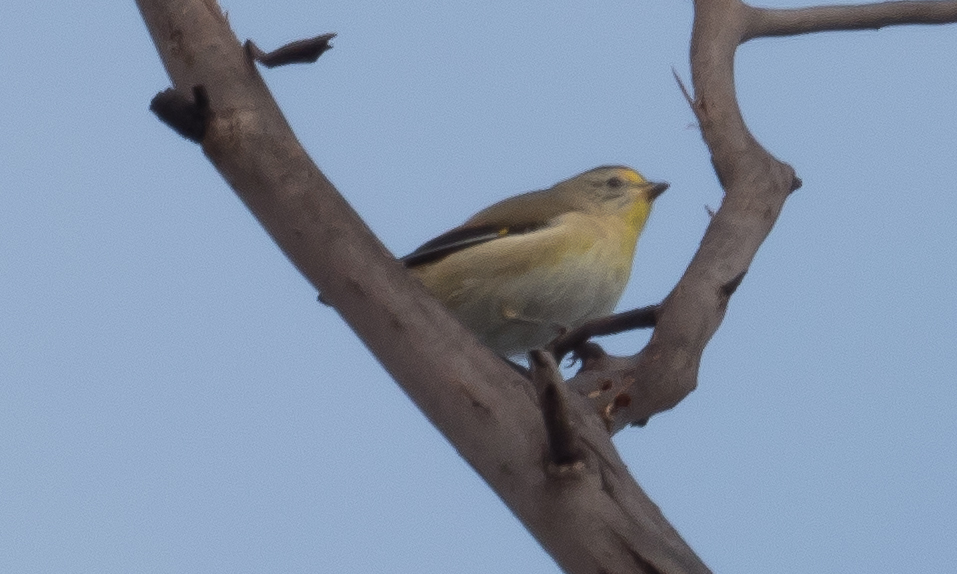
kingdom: Animalia
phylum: Chordata
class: Aves
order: Passeriformes
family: Pardalotidae
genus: Pardalotus
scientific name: Pardalotus striatus
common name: Striated pardalote
